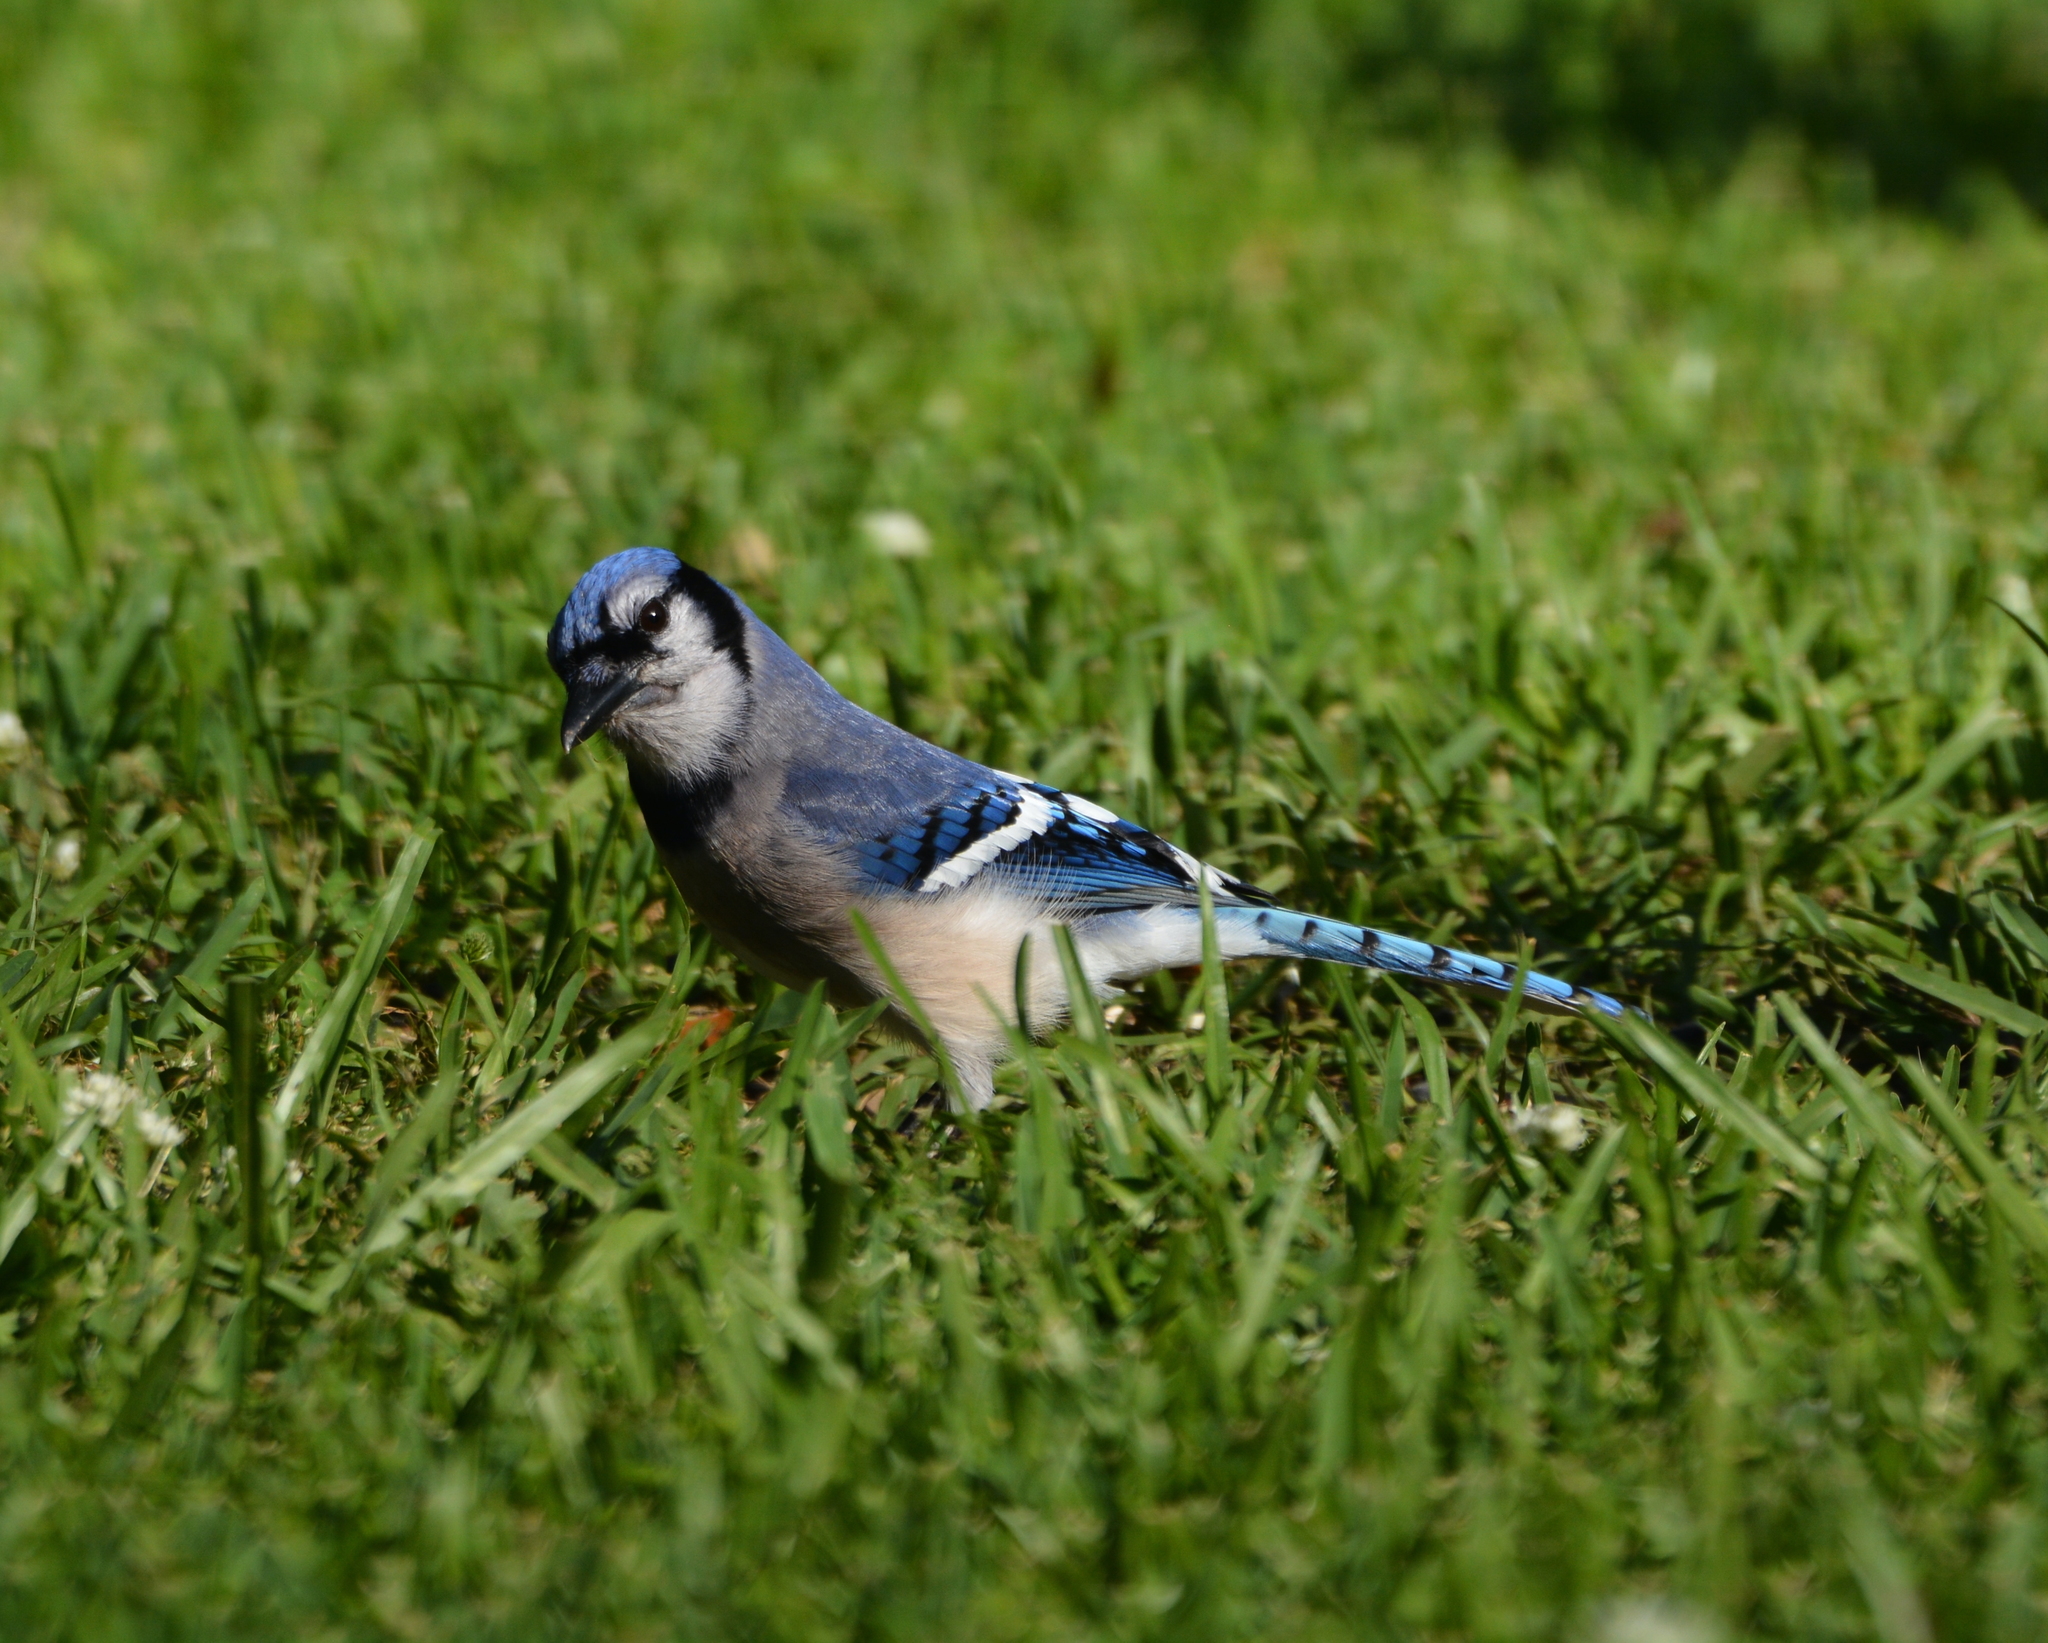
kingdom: Animalia
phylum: Chordata
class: Aves
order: Passeriformes
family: Corvidae
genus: Cyanocitta
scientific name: Cyanocitta cristata
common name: Blue jay
